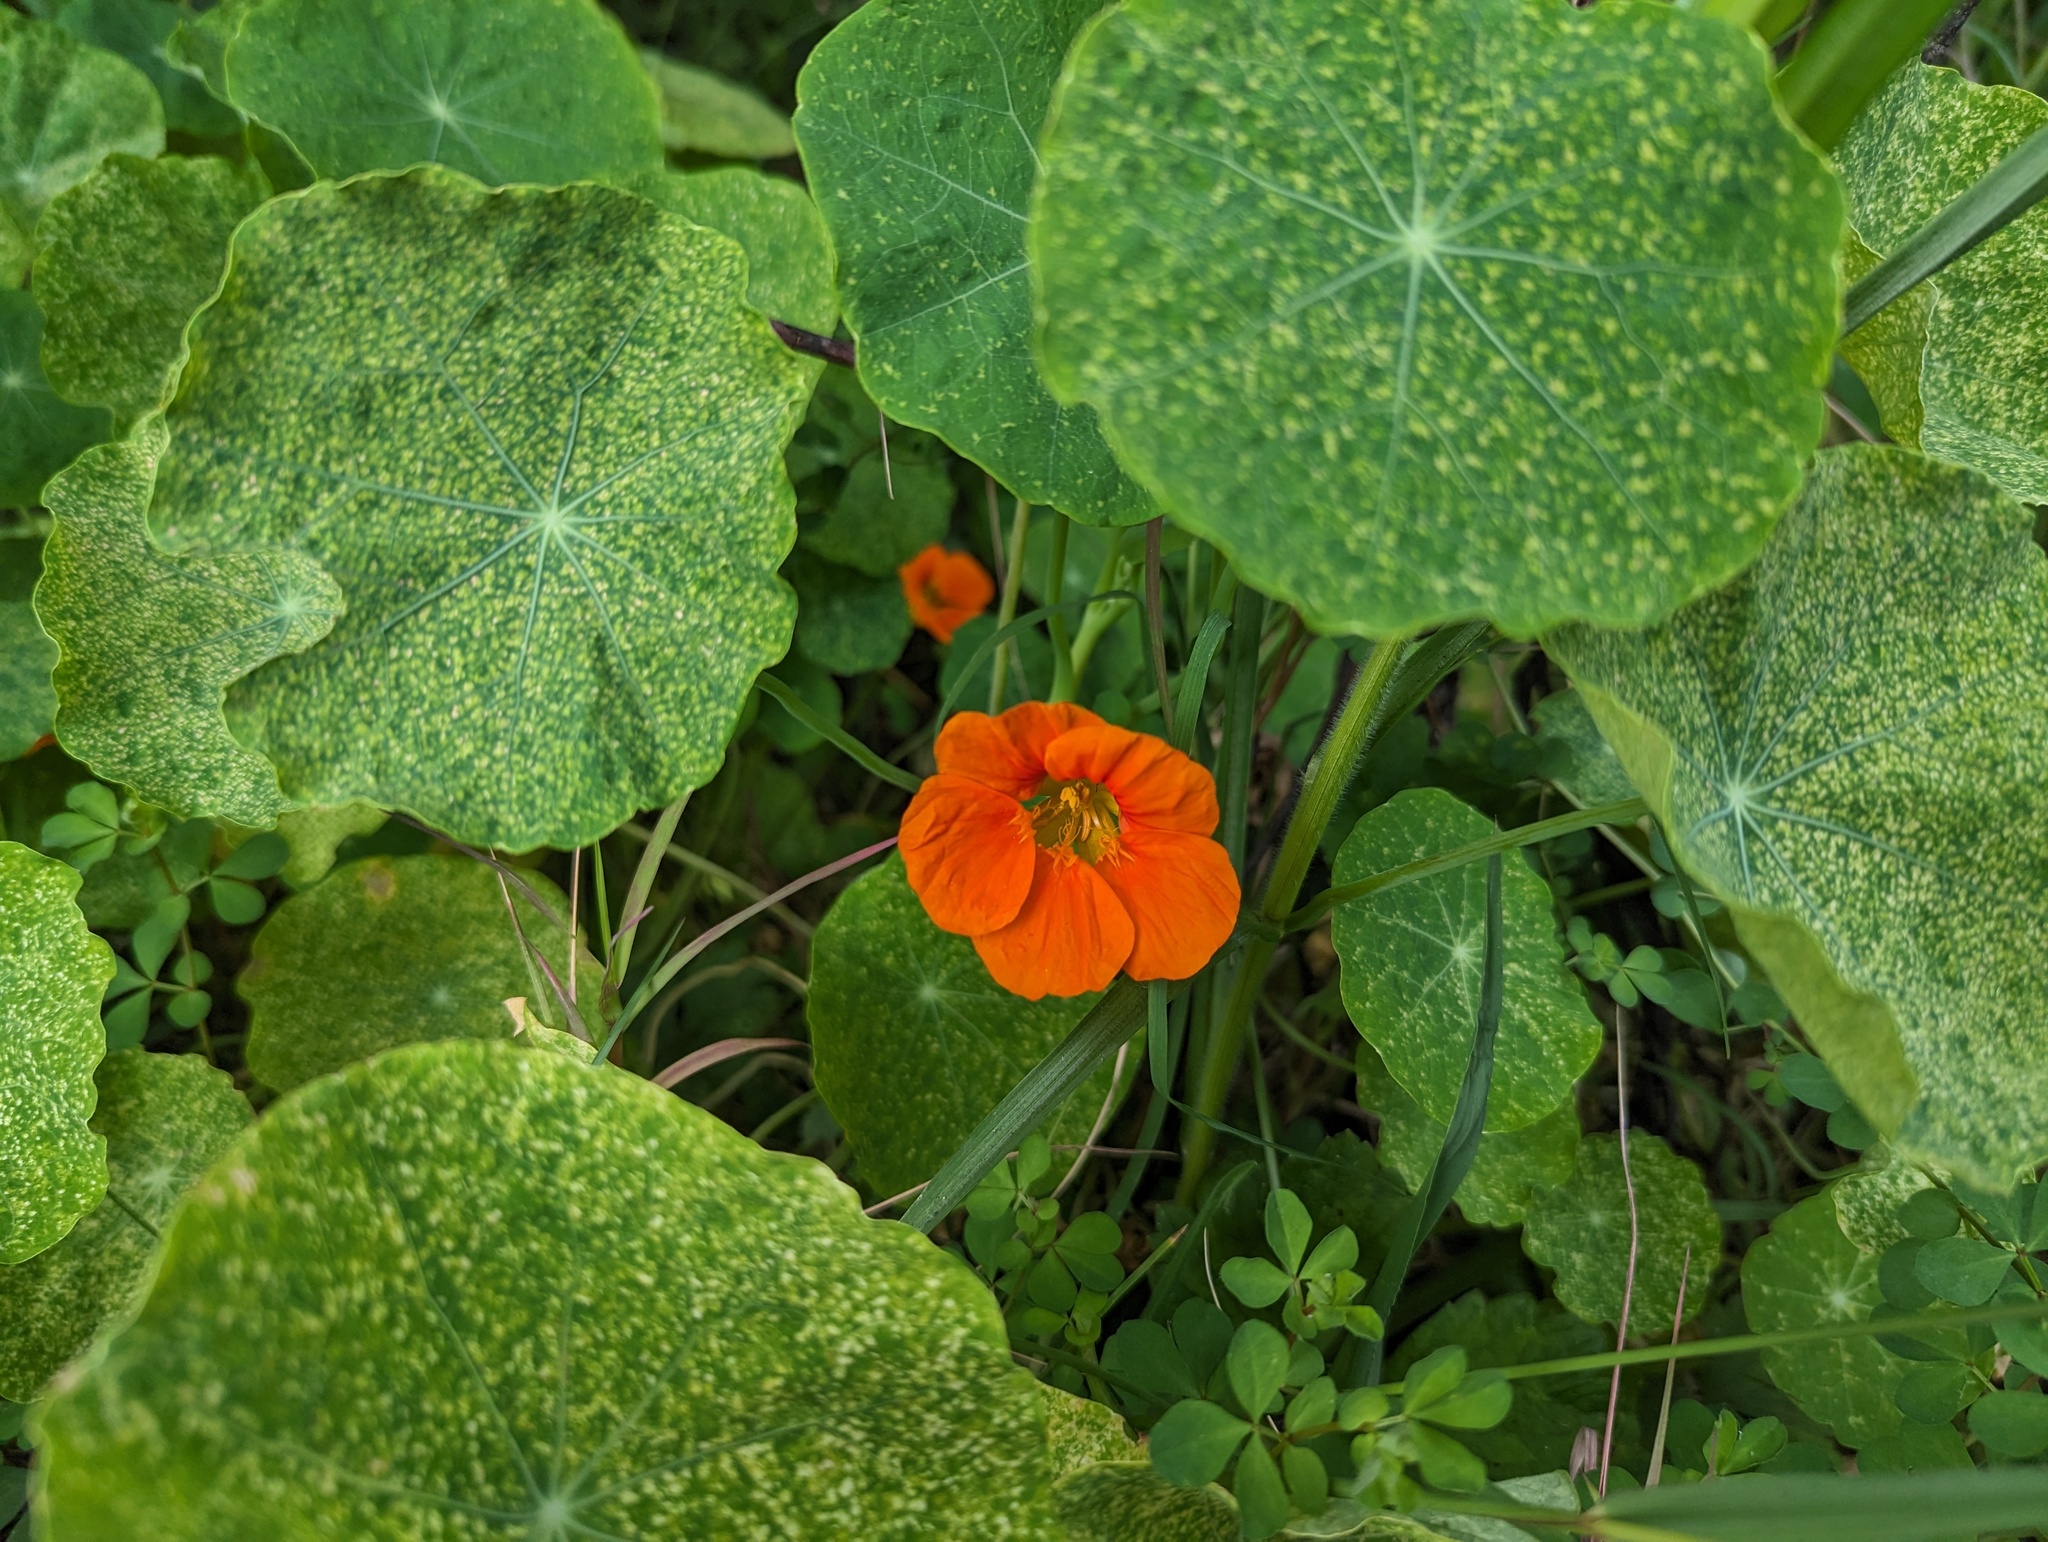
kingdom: Plantae
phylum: Tracheophyta
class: Magnoliopsida
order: Brassicales
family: Tropaeolaceae
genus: Tropaeolum
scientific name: Tropaeolum majus
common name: Nasturtium
